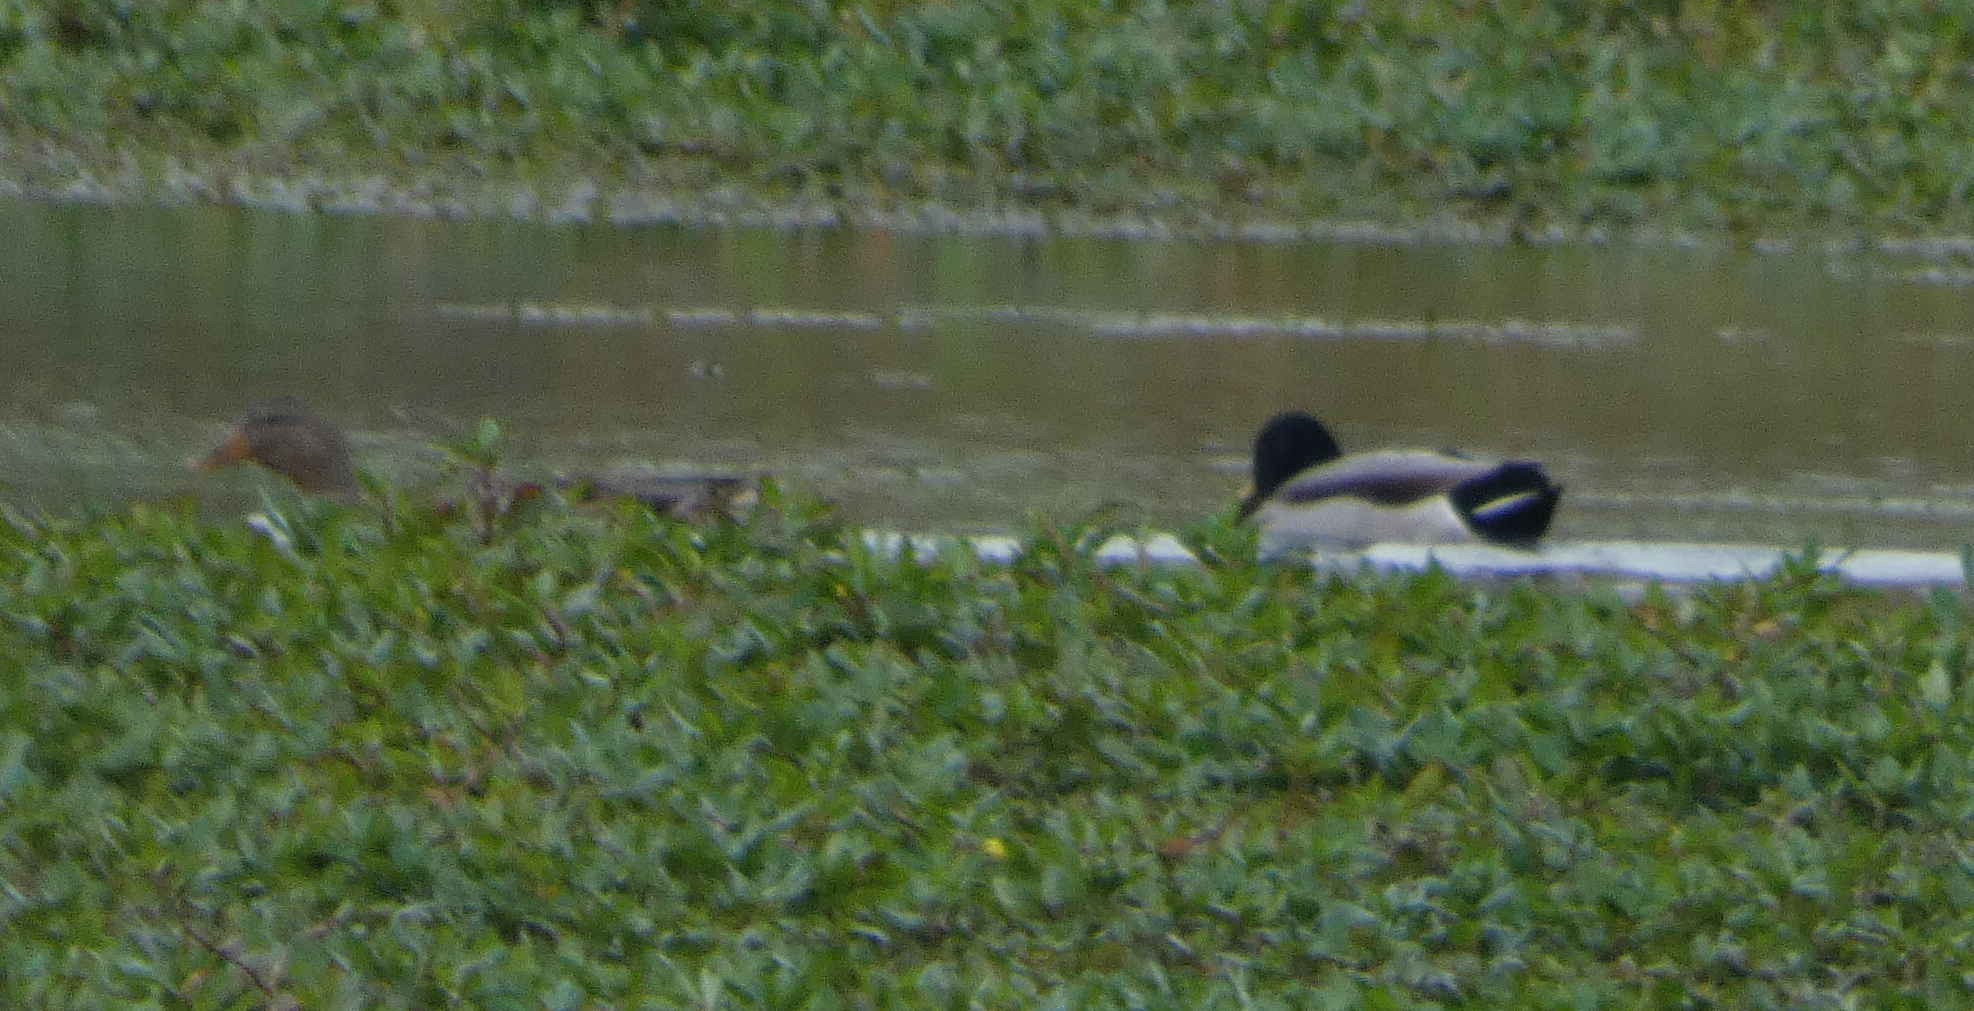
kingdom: Animalia
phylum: Chordata
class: Aves
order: Anseriformes
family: Anatidae
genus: Anas
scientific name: Anas platyrhynchos
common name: Mallard
